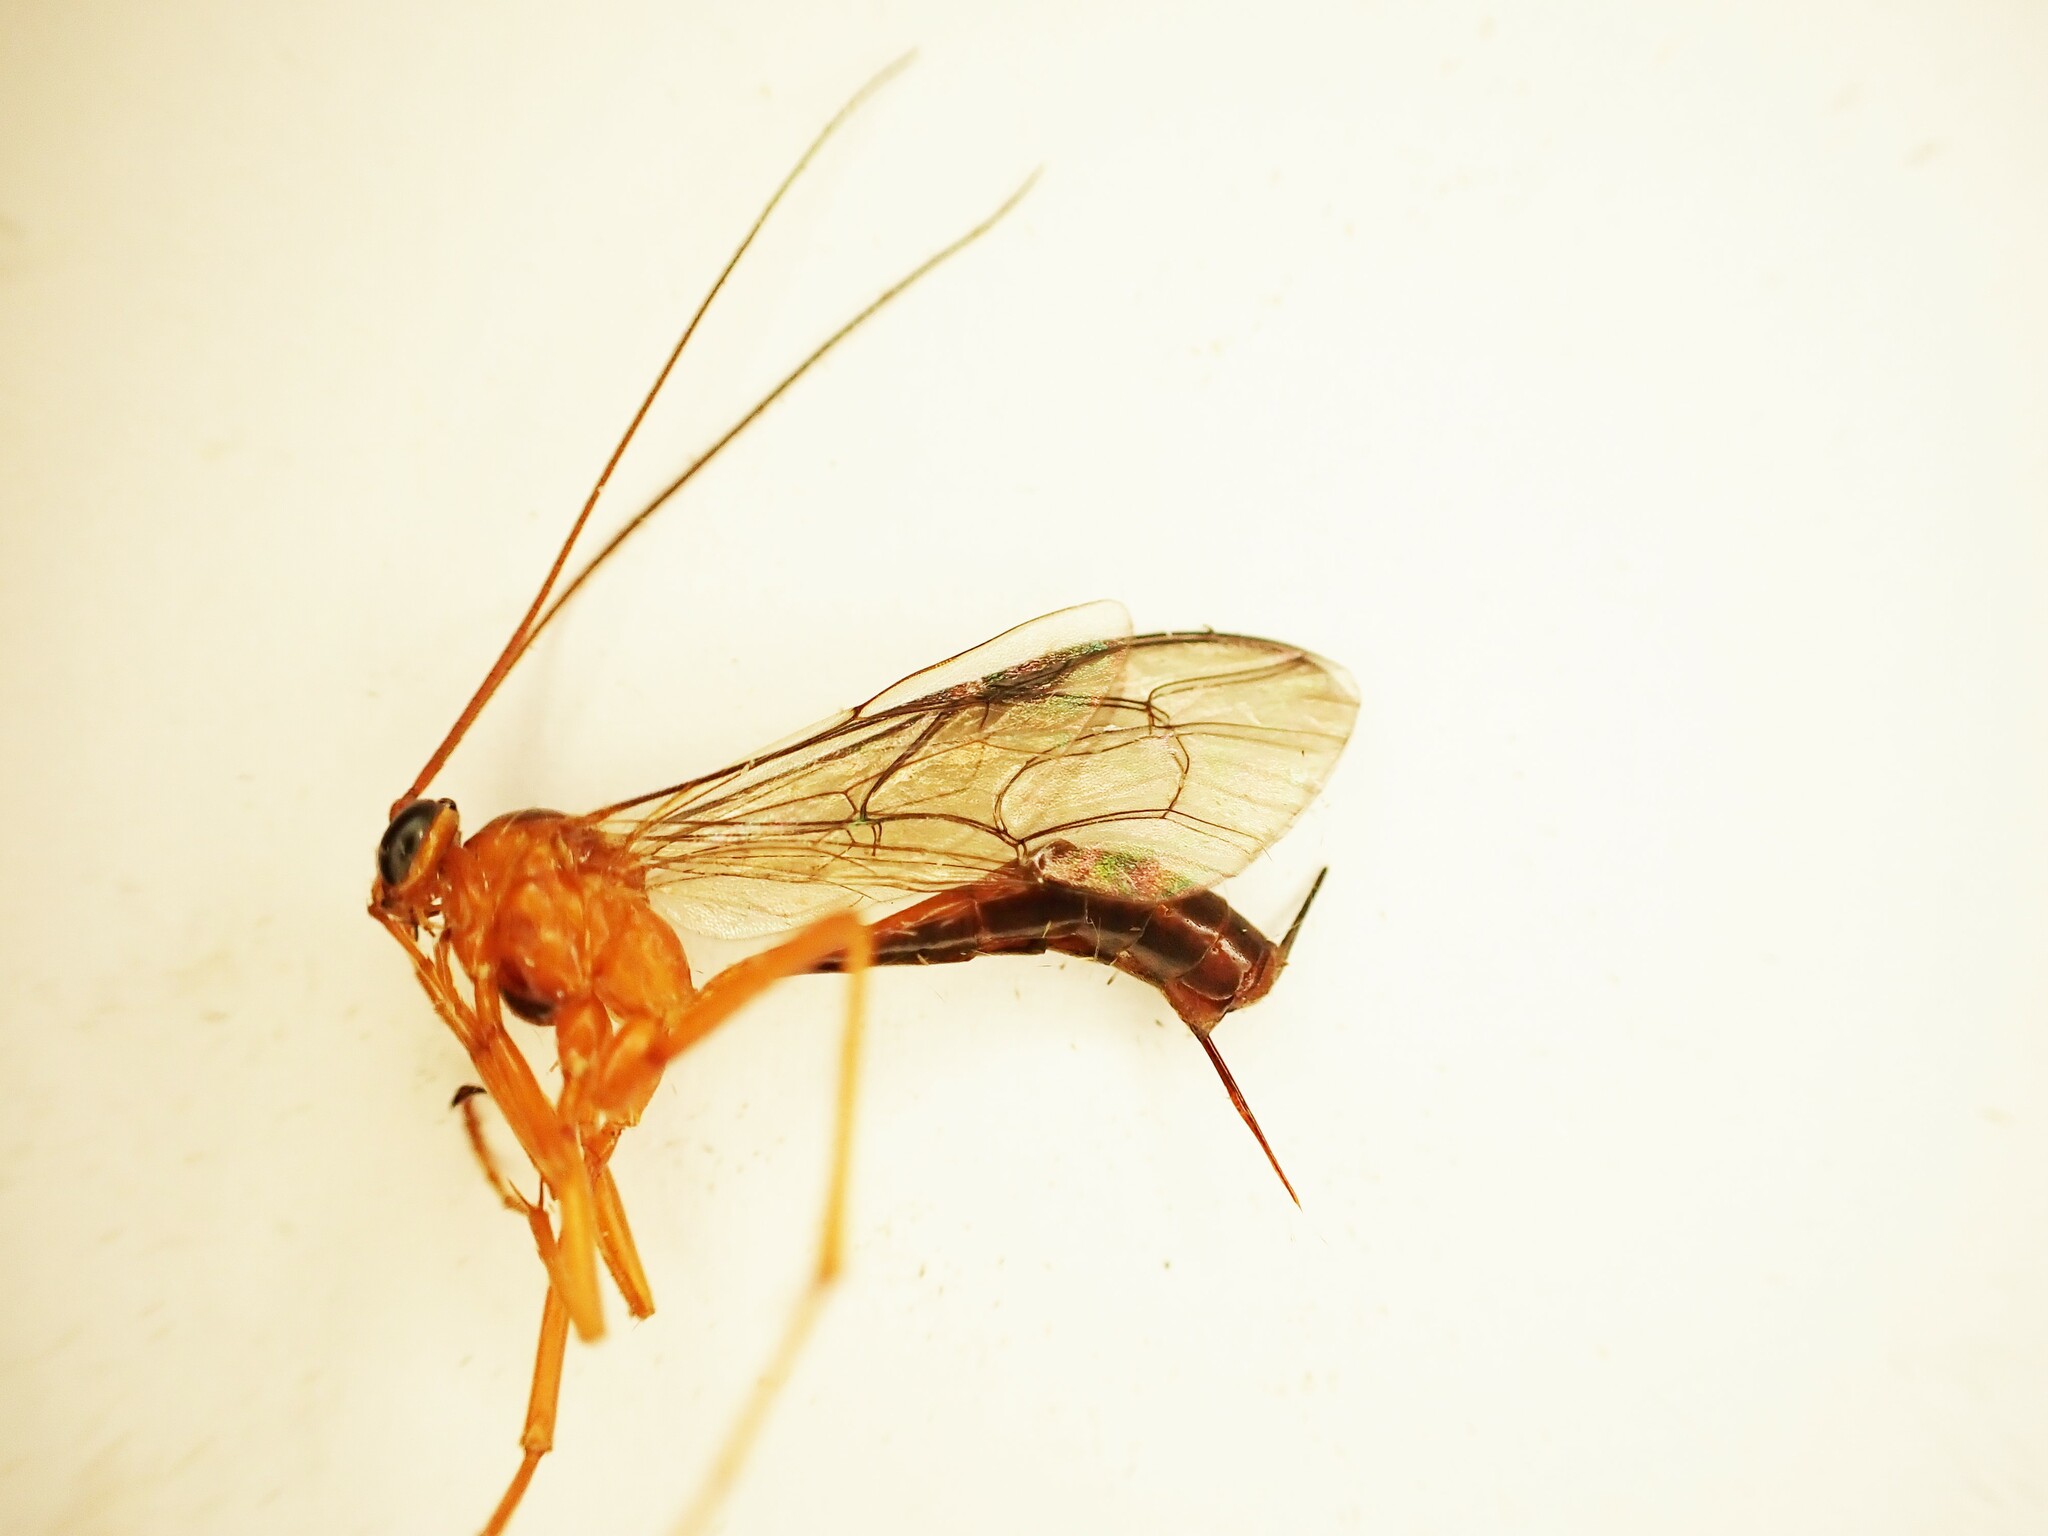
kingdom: Animalia
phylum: Arthropoda
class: Insecta
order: Hymenoptera
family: Ichneumonidae
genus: Netelia
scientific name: Netelia ephippiata
